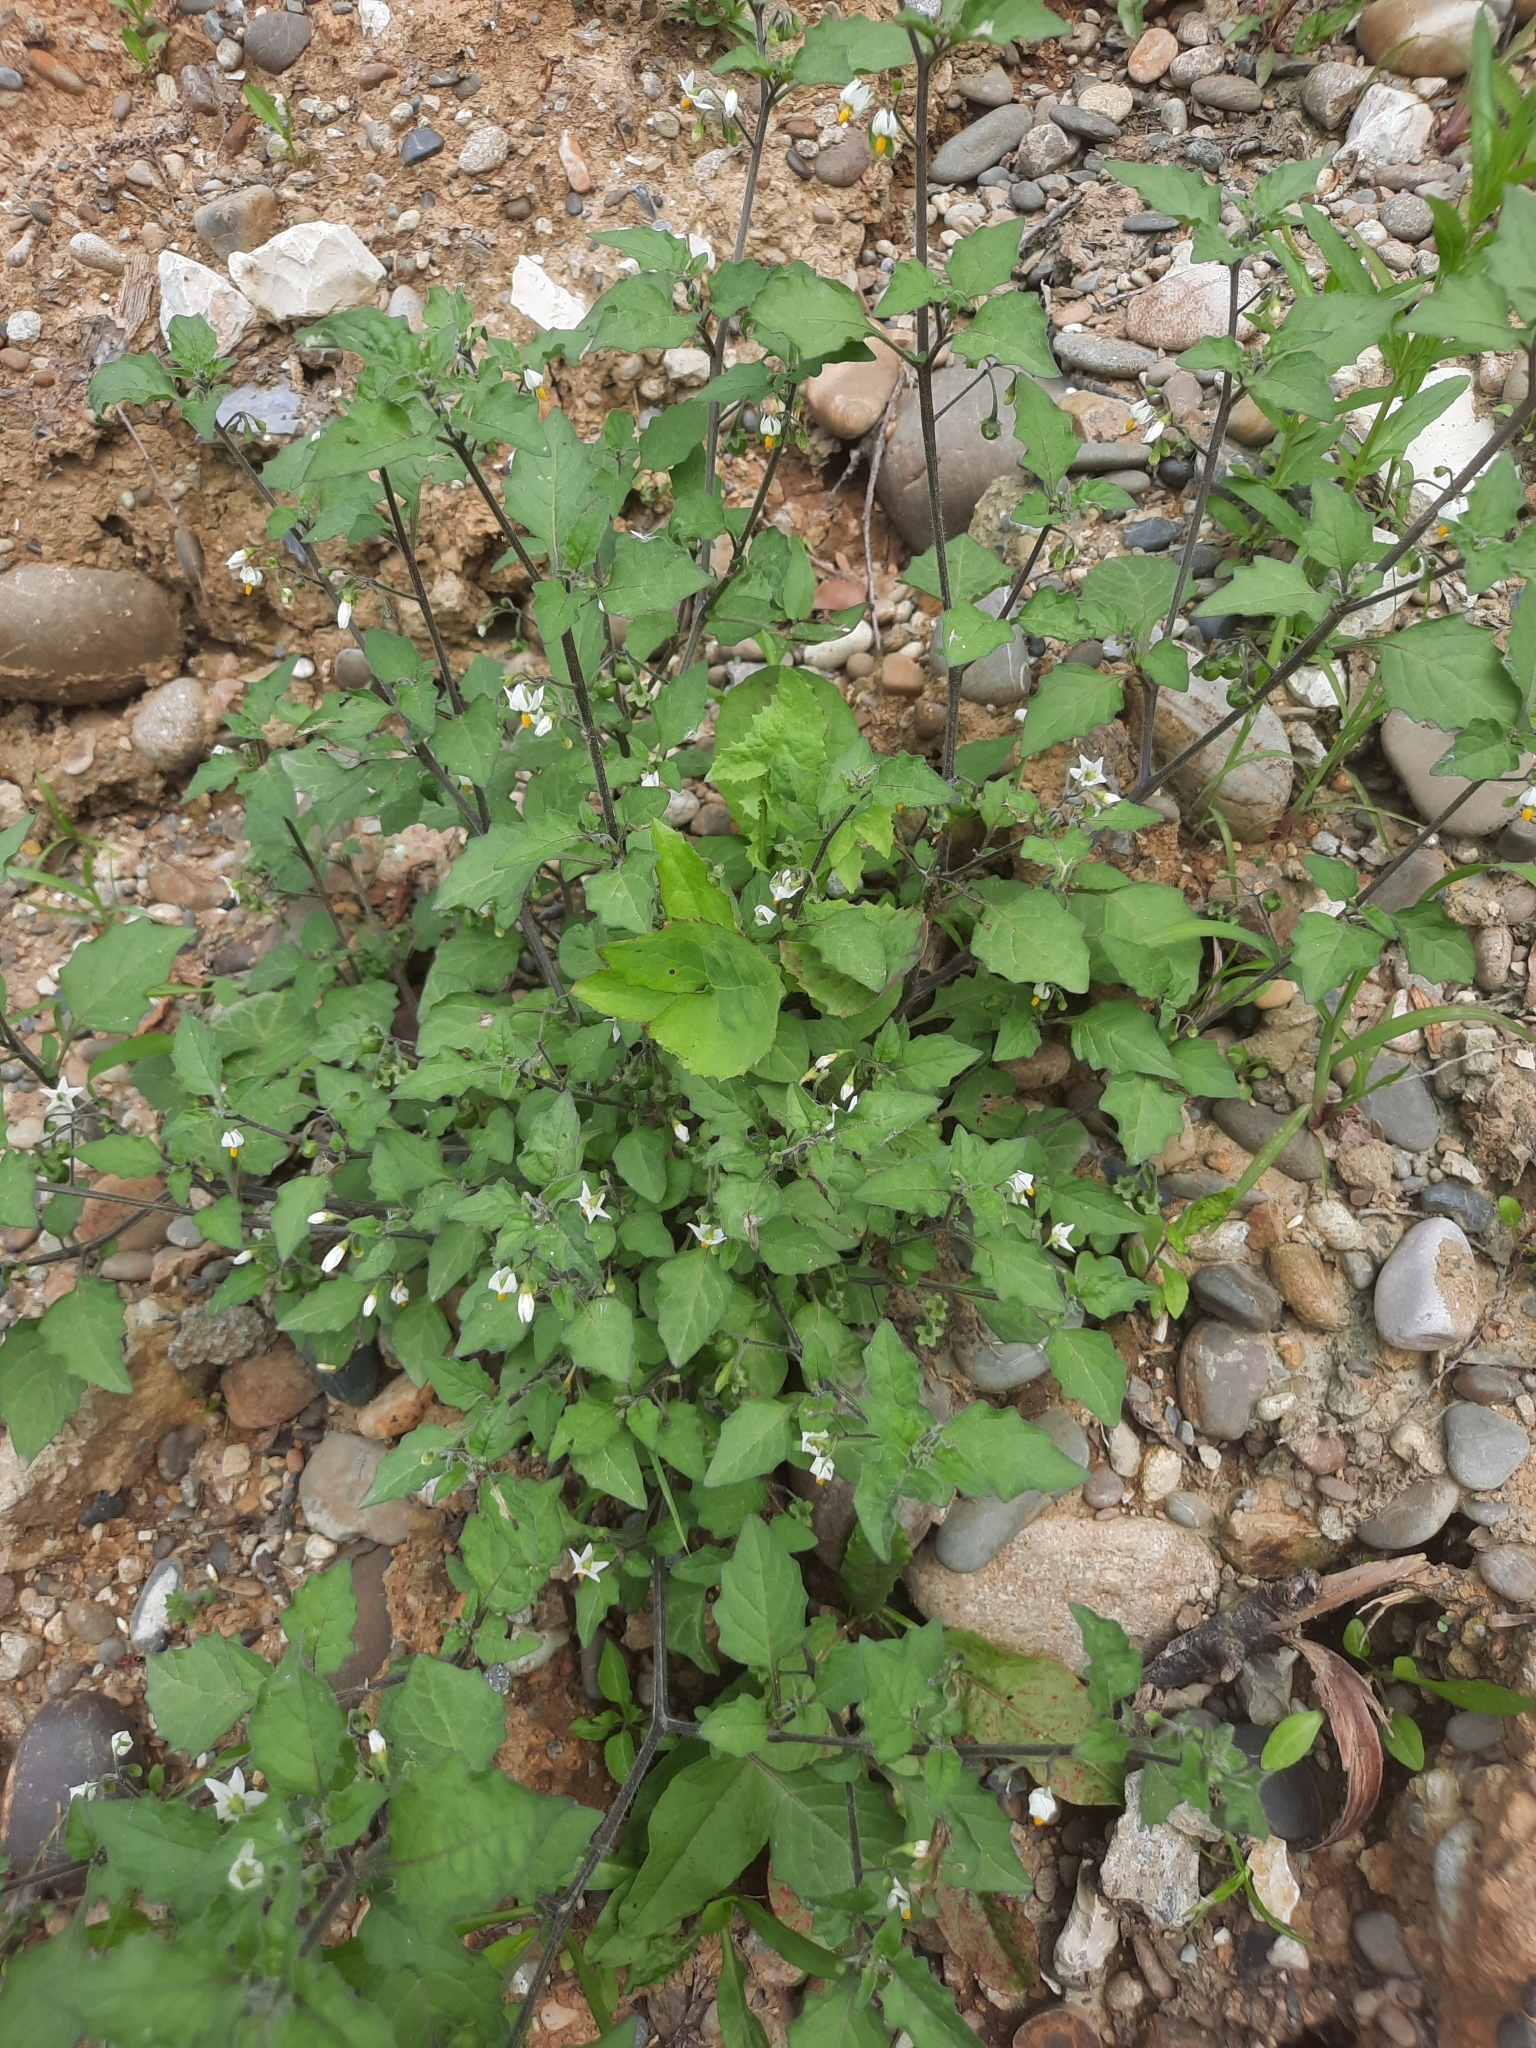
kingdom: Plantae
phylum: Tracheophyta
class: Magnoliopsida
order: Solanales
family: Solanaceae
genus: Solanum
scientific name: Solanum nigrum
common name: Black nightshade
